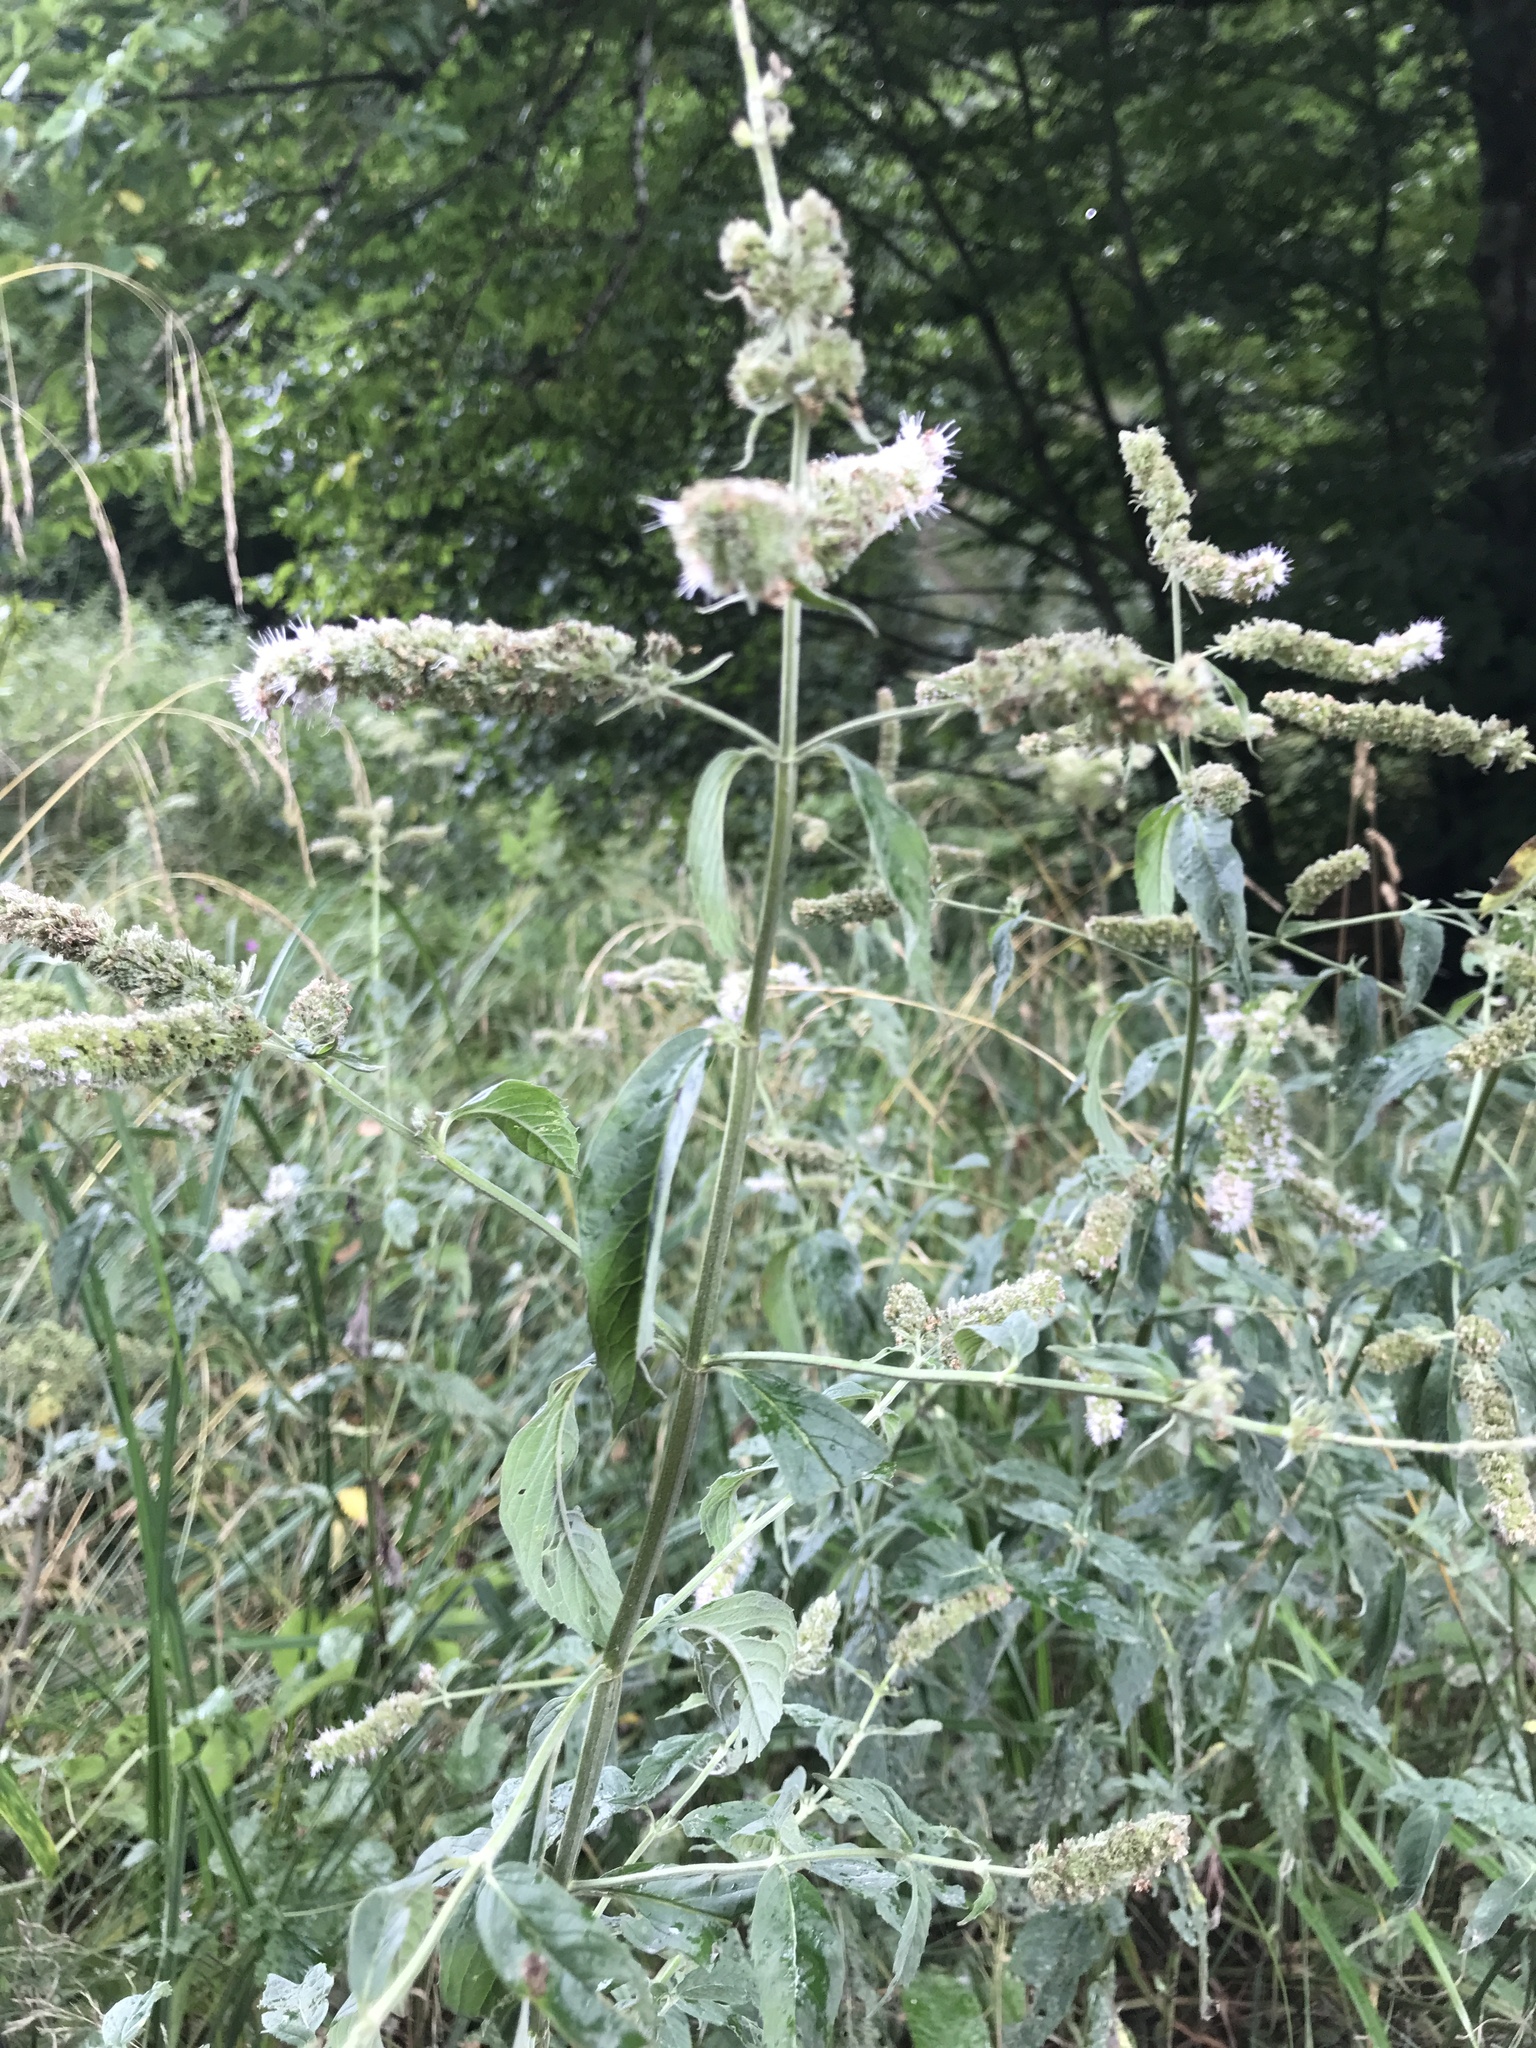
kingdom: Plantae
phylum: Tracheophyta
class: Magnoliopsida
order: Lamiales
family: Lamiaceae
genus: Mentha
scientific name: Mentha longifolia
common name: Horse mint
